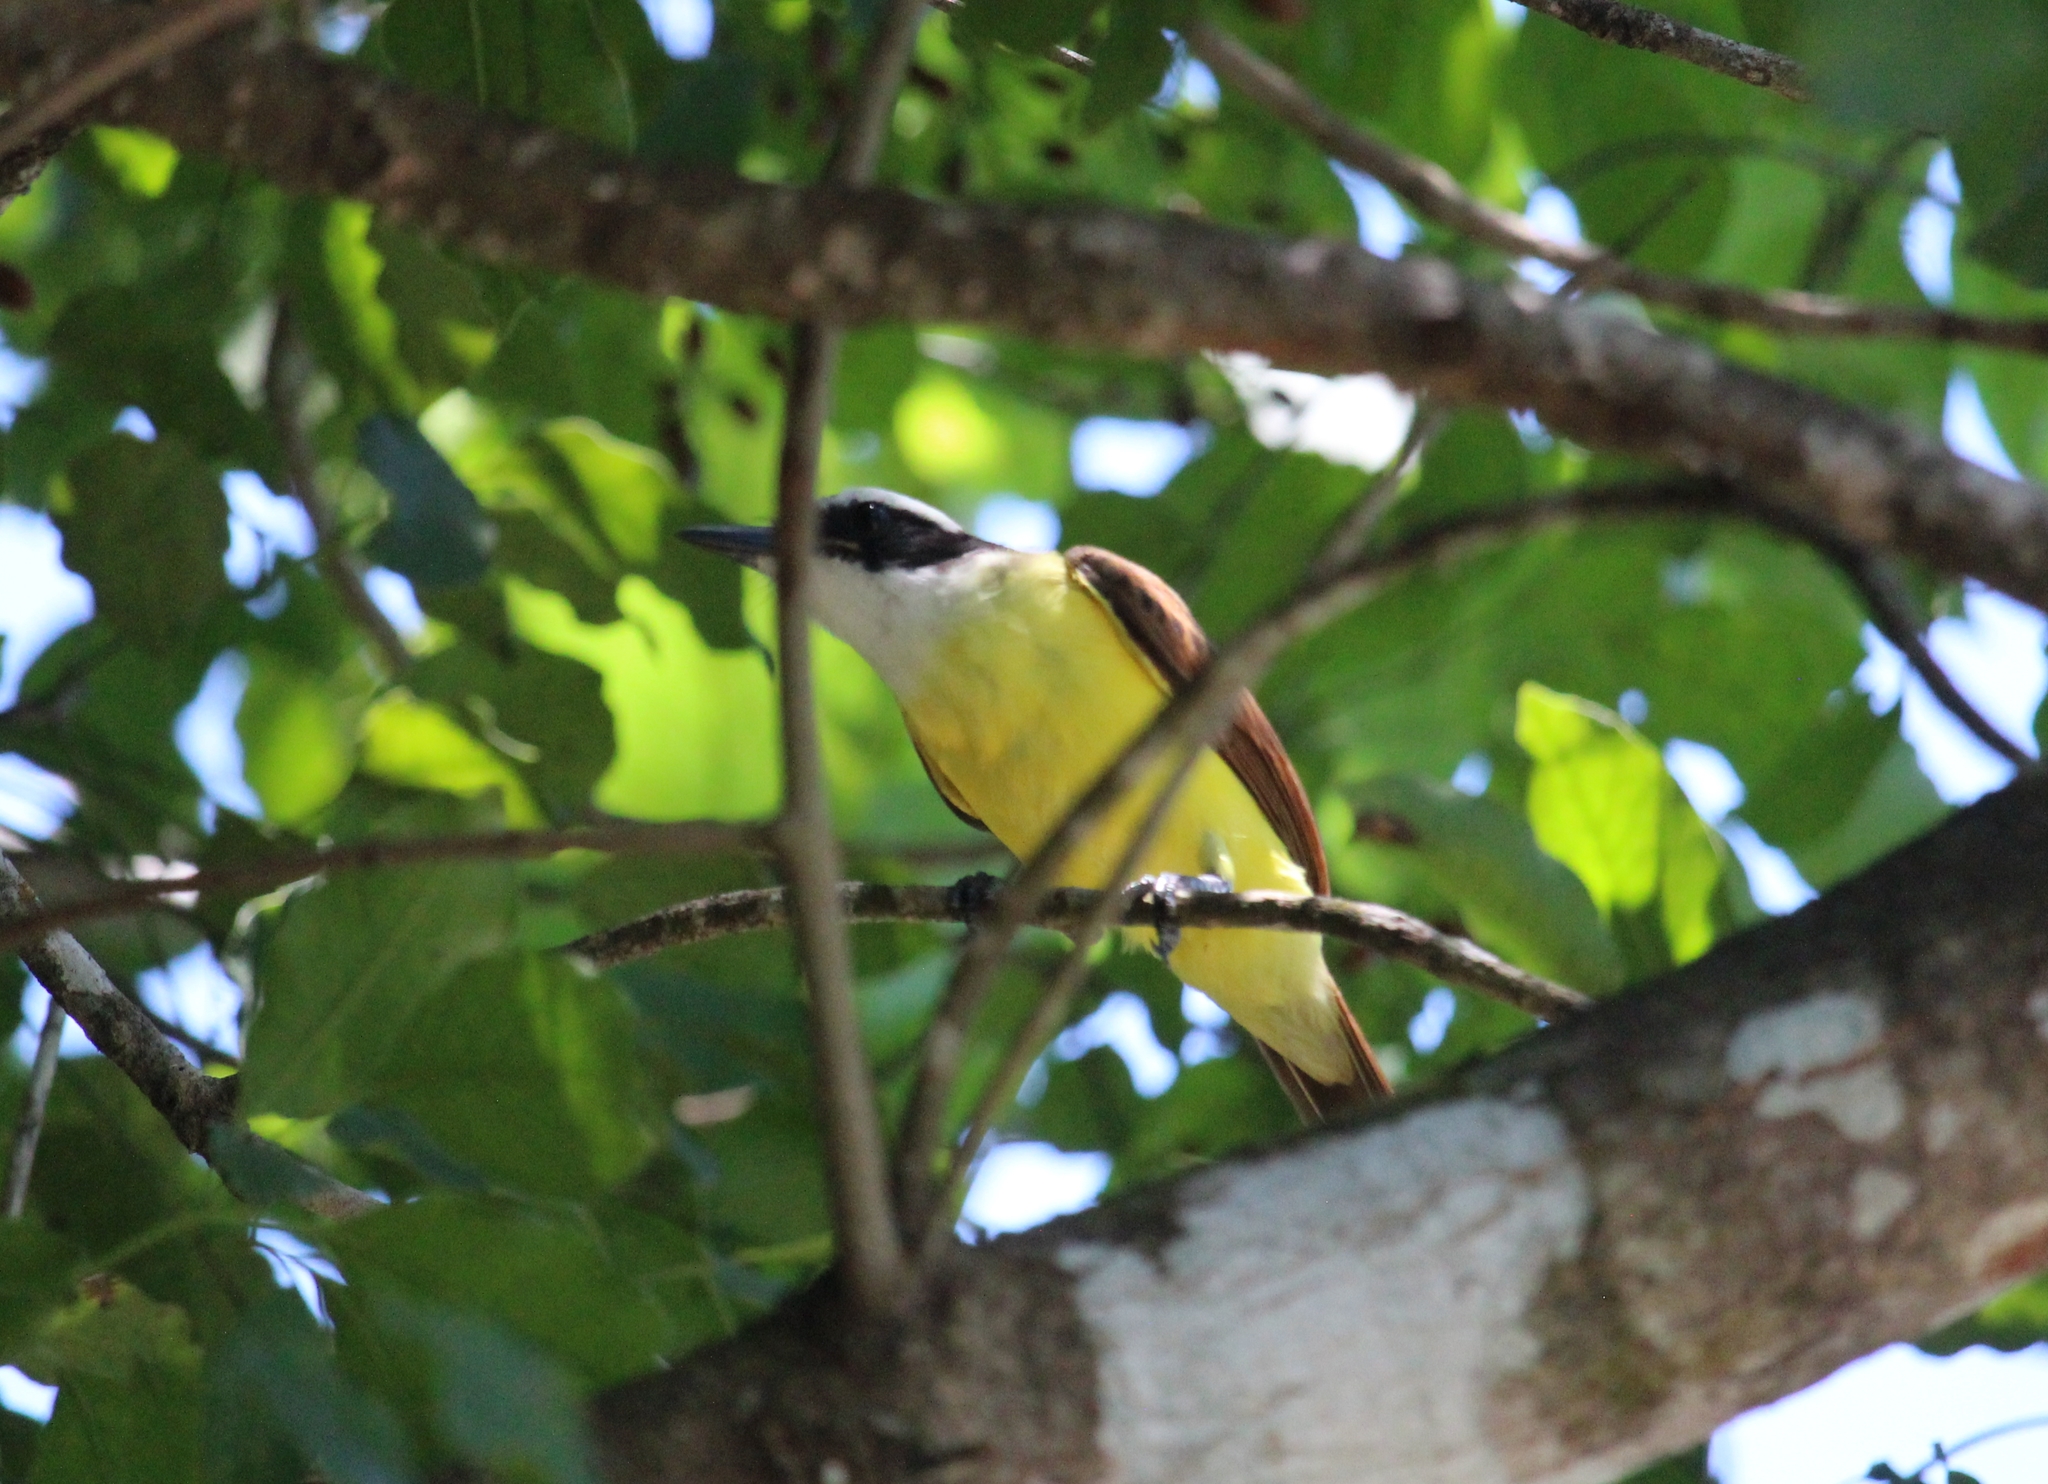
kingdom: Animalia
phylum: Chordata
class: Aves
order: Passeriformes
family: Tyrannidae
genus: Pitangus
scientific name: Pitangus sulphuratus
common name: Great kiskadee
